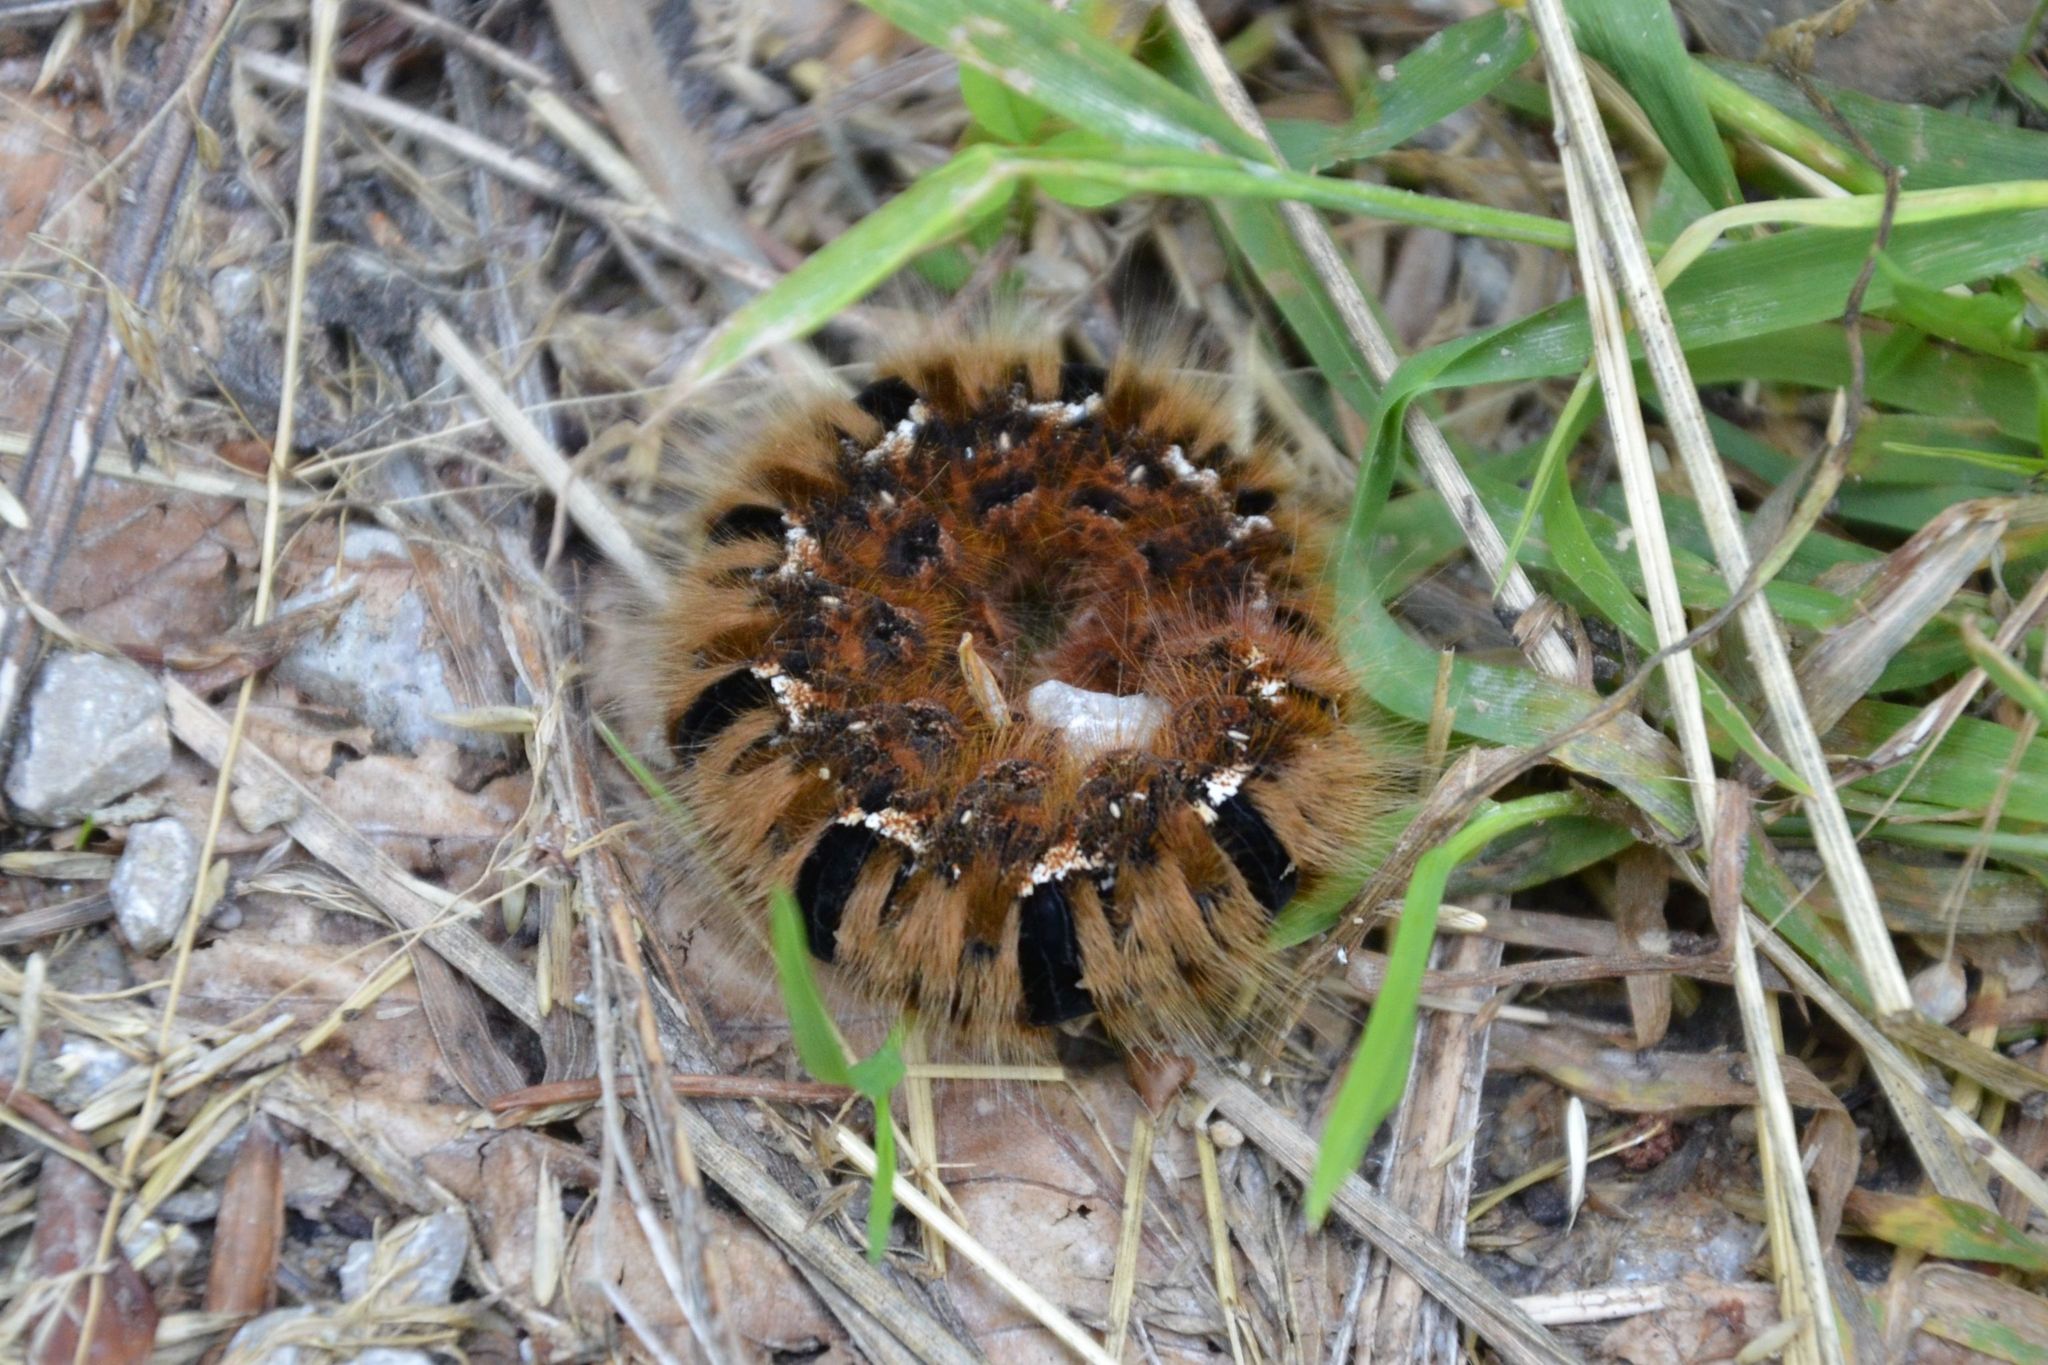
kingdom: Animalia
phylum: Arthropoda
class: Insecta
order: Lepidoptera
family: Lasiocampidae
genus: Lasiocampa
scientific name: Lasiocampa quercus
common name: Oak eggar
